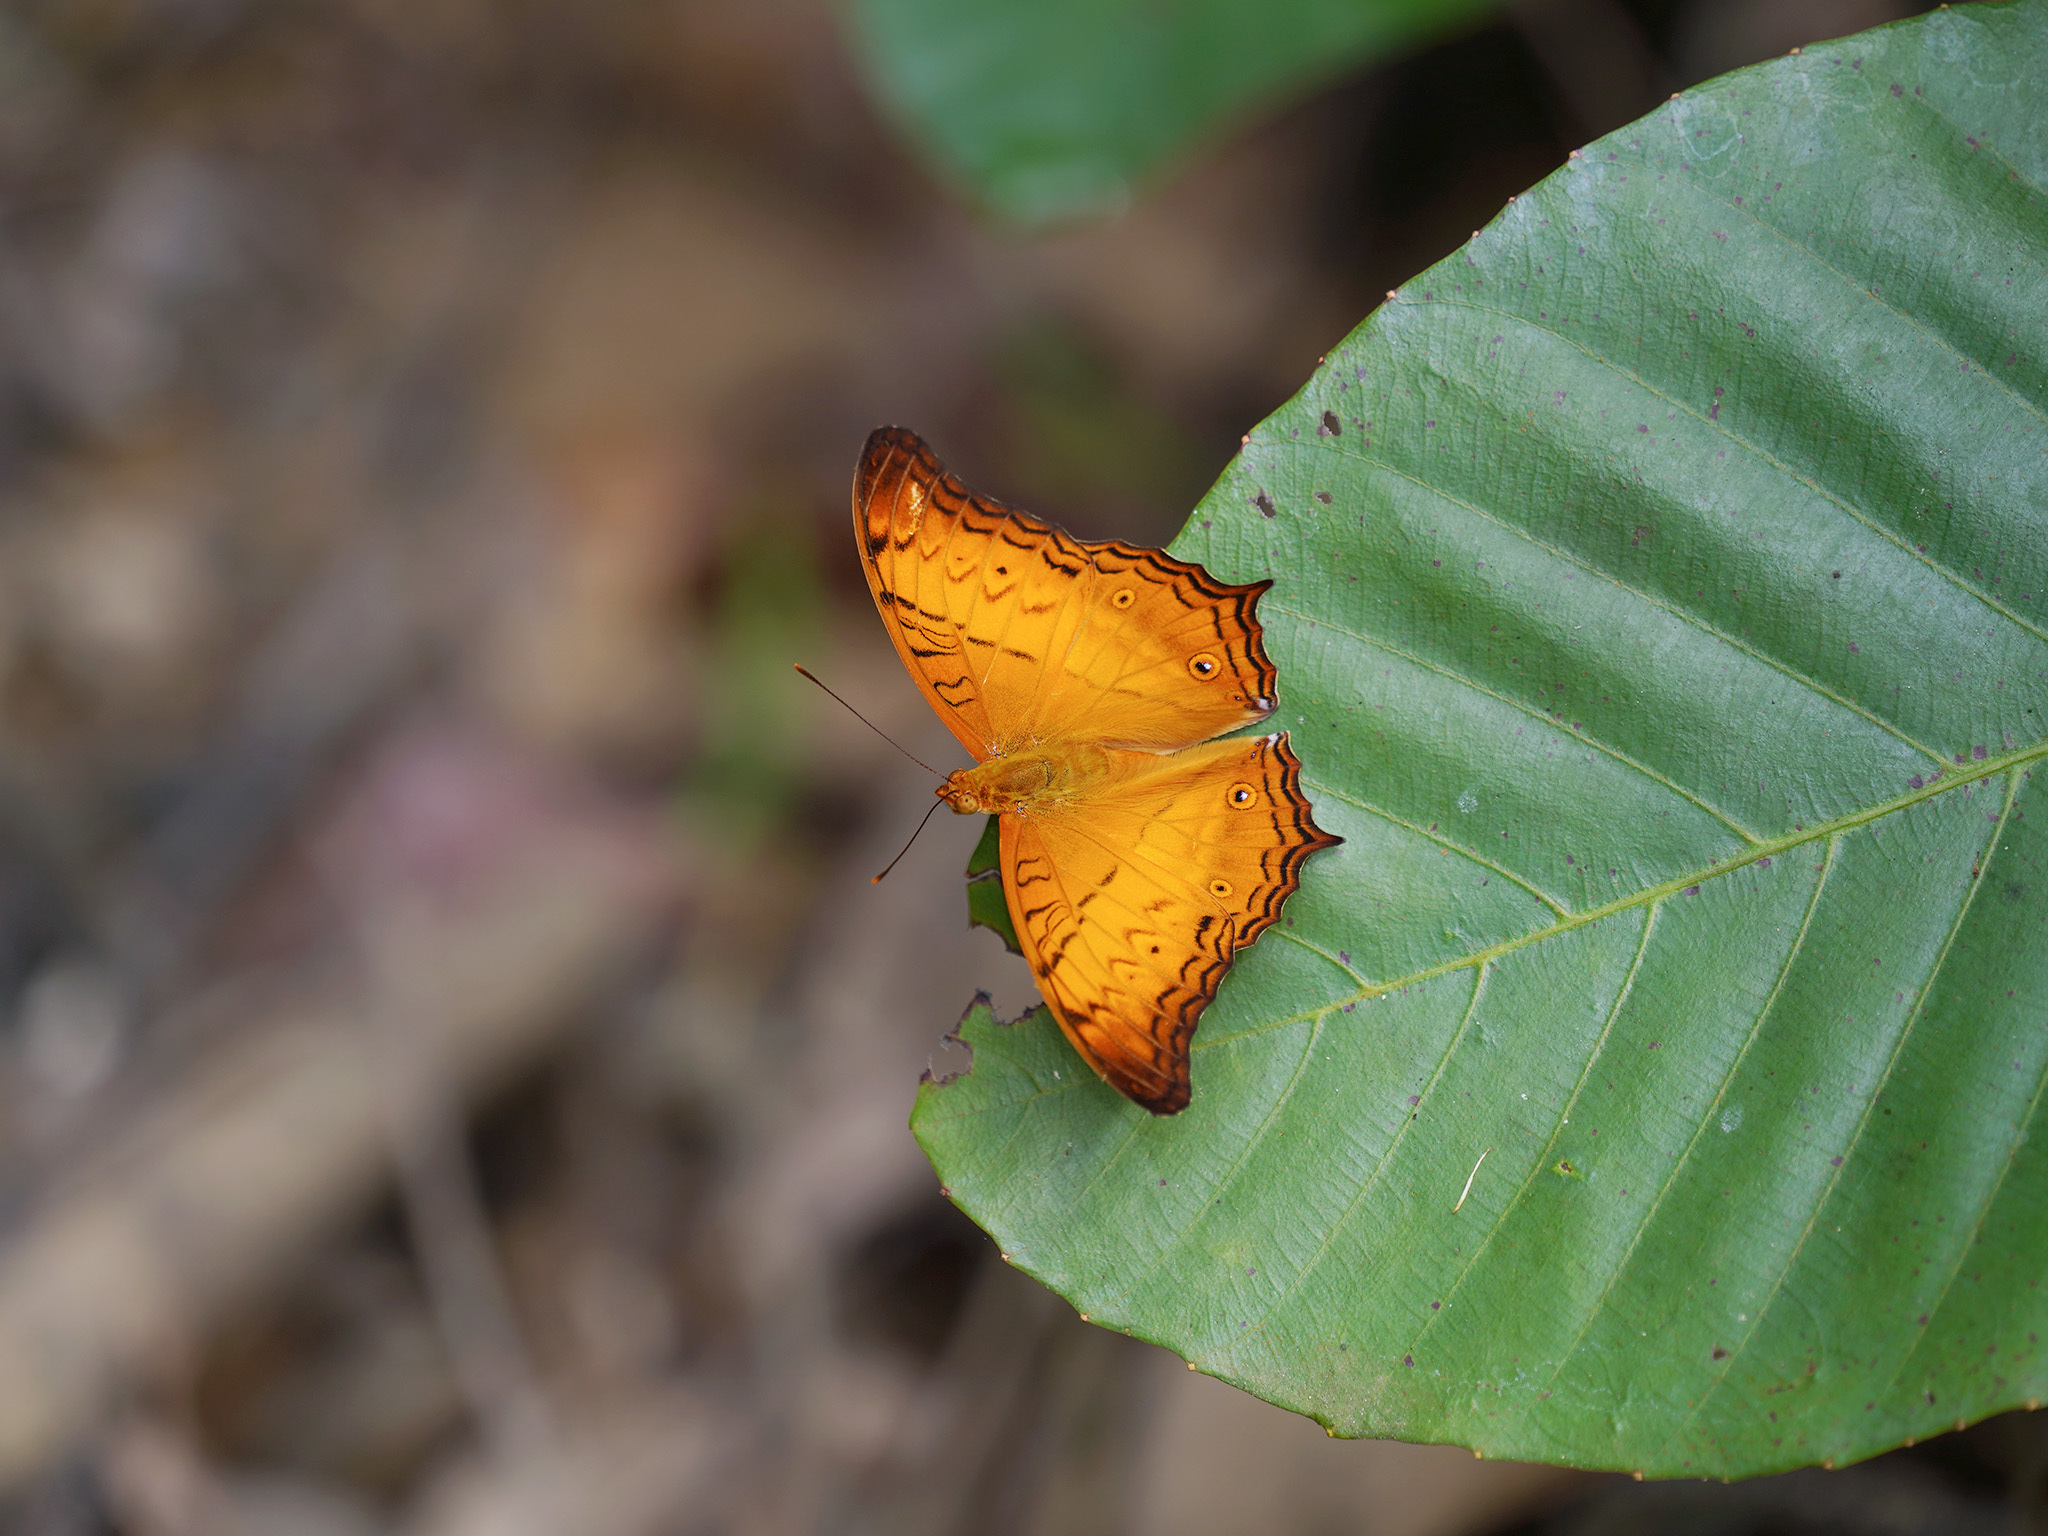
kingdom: Animalia
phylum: Arthropoda
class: Insecta
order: Lepidoptera
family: Nymphalidae
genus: Vindula
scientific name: Vindula deione
